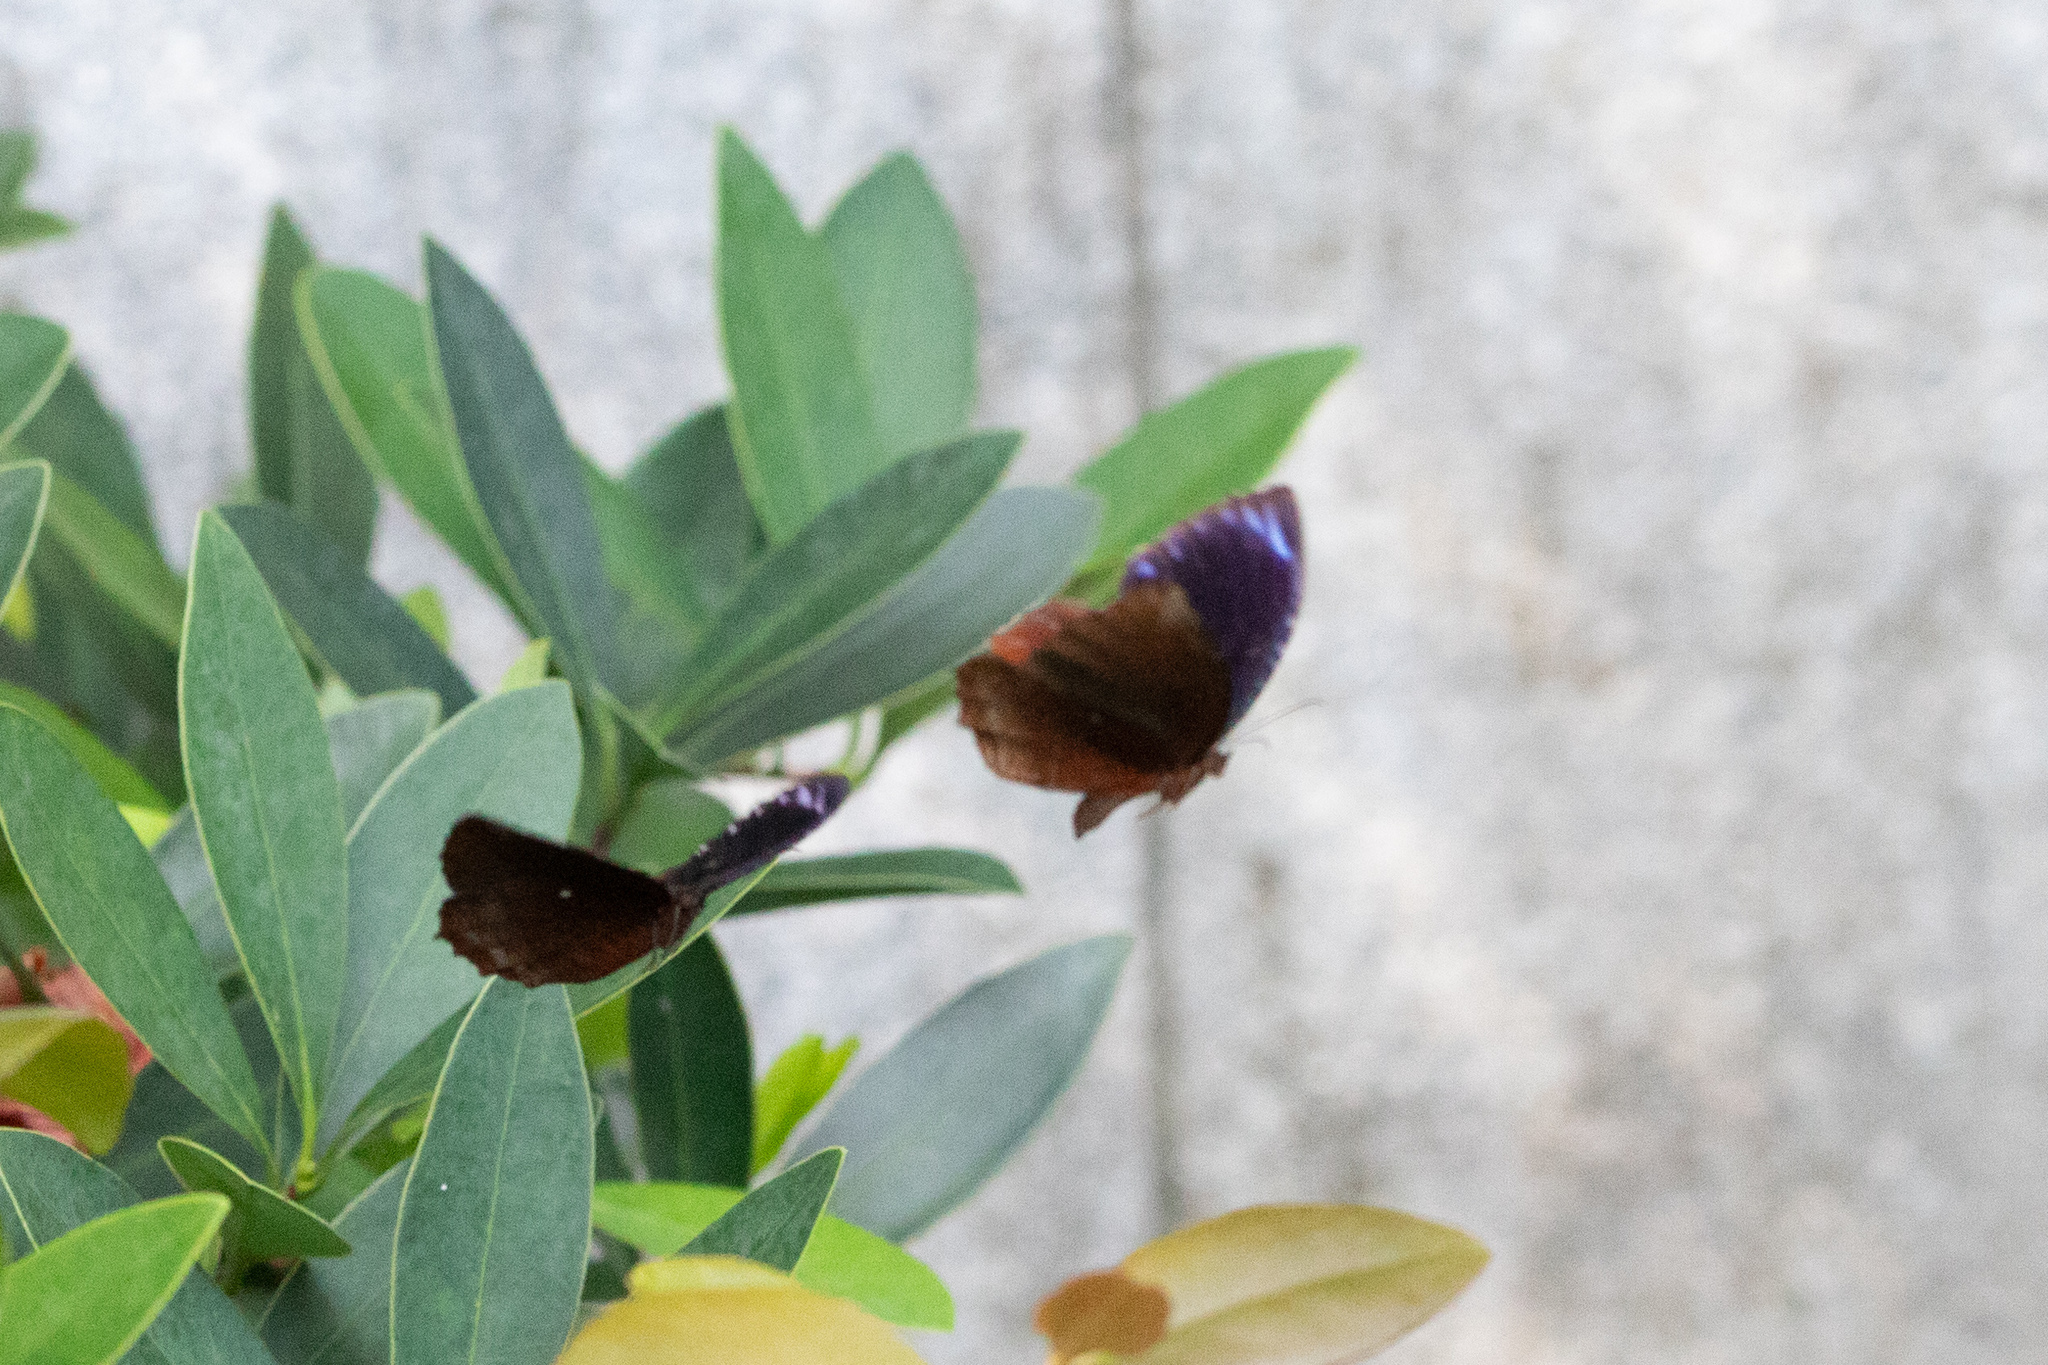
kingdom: Animalia
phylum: Arthropoda
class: Insecta
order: Lepidoptera
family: Nymphalidae
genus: Elymnias
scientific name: Elymnias hypermnestra
